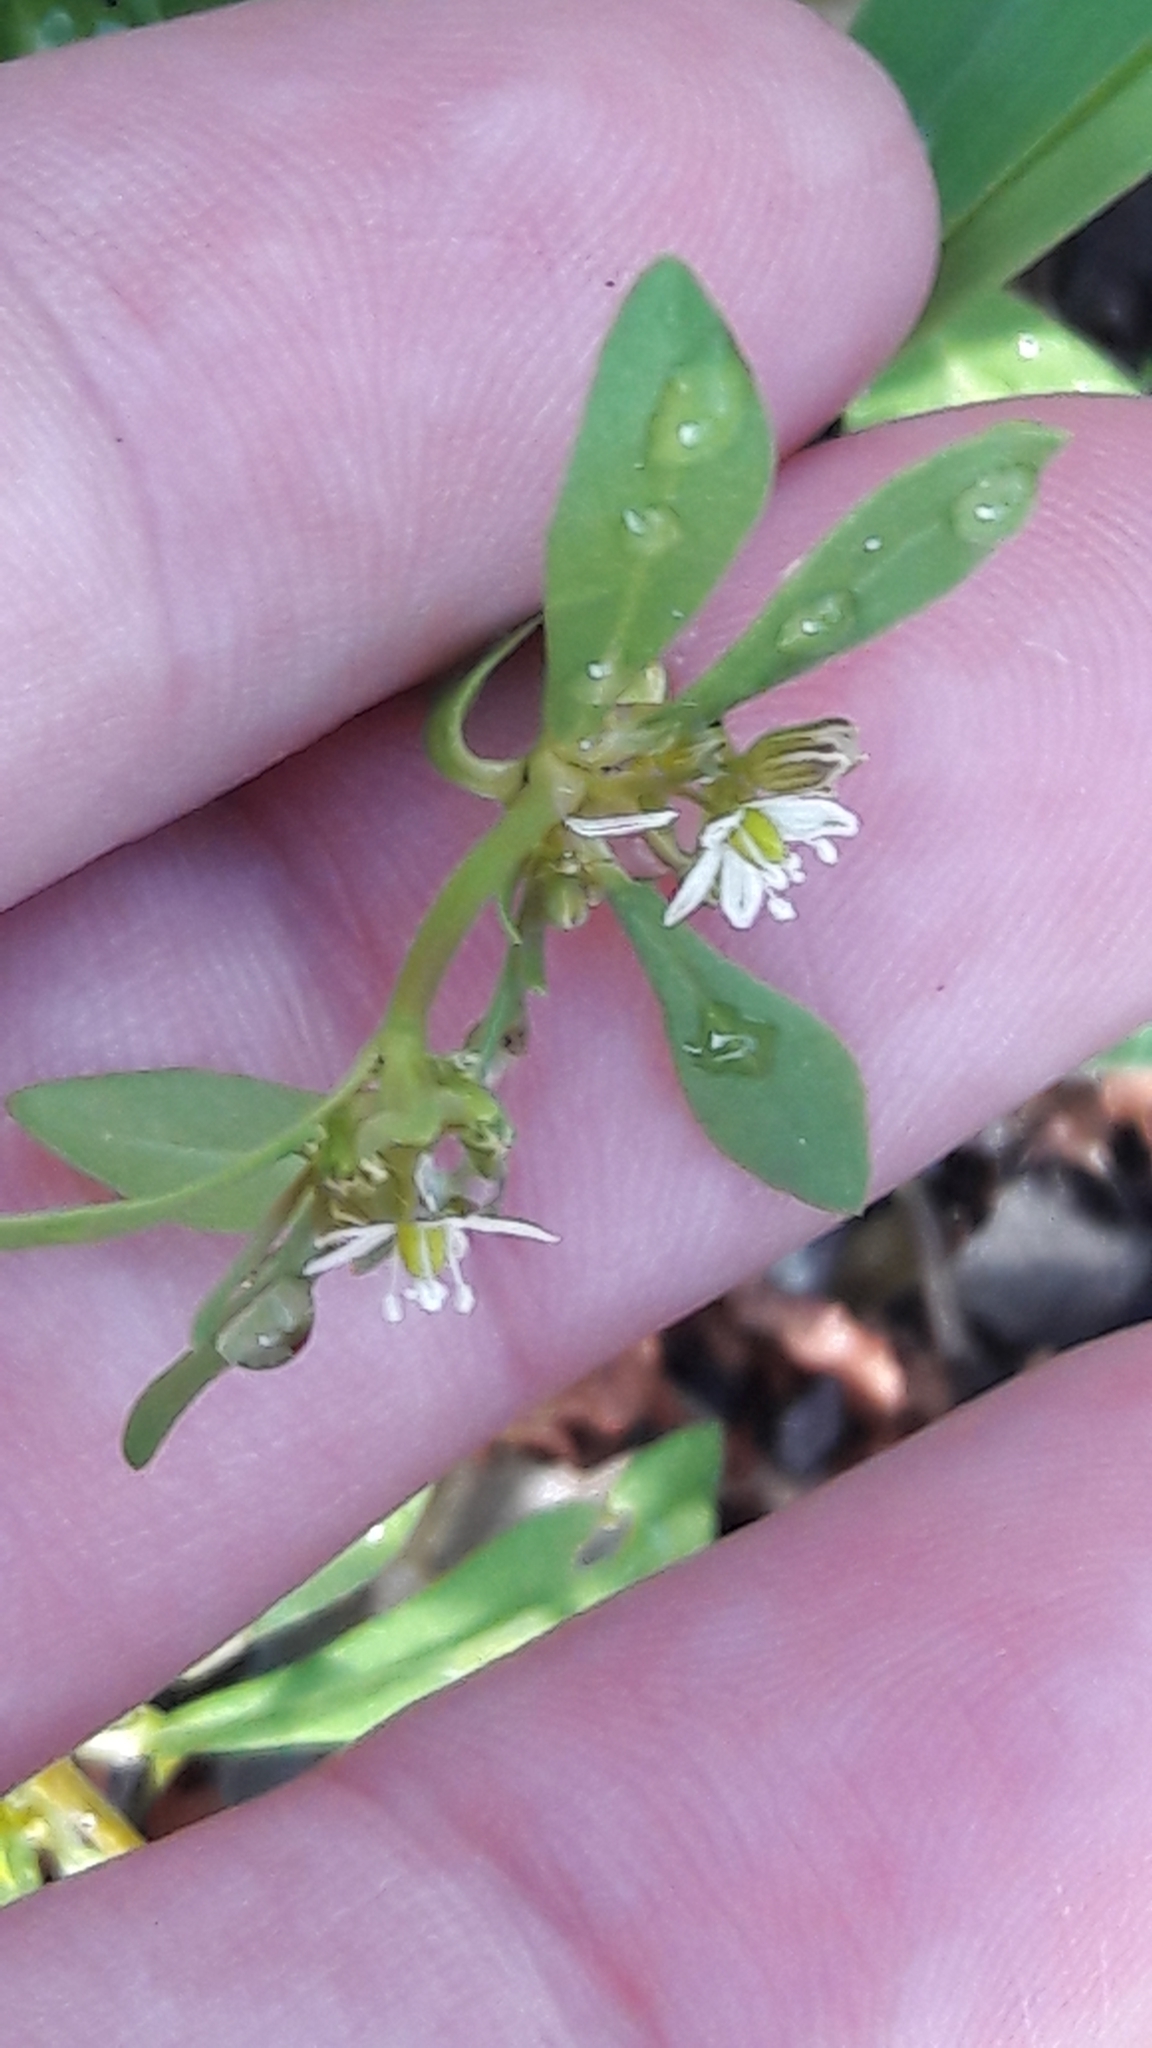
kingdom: Plantae
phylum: Tracheophyta
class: Magnoliopsida
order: Caryophyllales
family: Molluginaceae
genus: Mollugo
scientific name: Mollugo verticillata
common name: Green carpetweed
